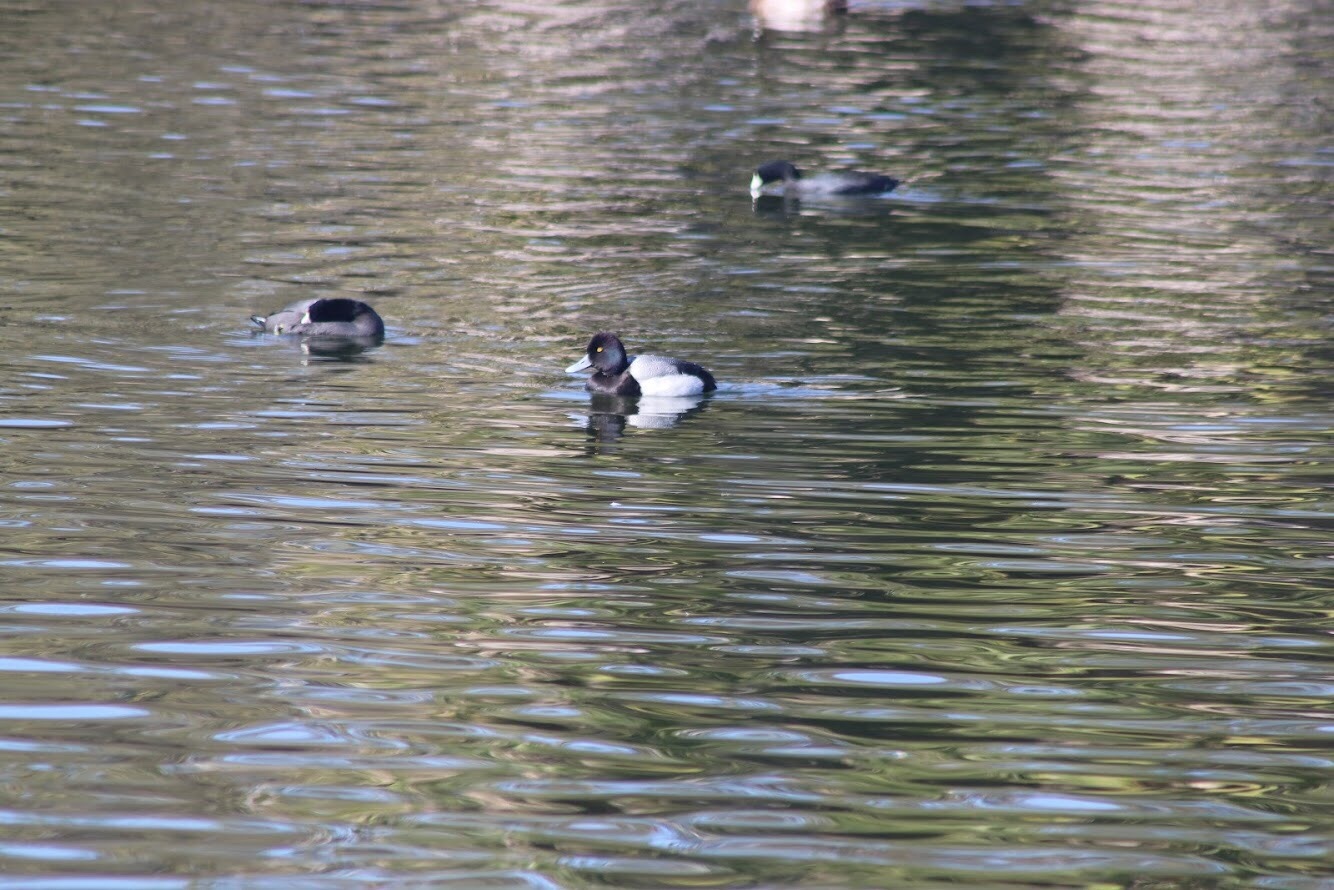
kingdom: Animalia
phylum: Chordata
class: Aves
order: Anseriformes
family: Anatidae
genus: Aythya
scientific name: Aythya affinis
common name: Lesser scaup
